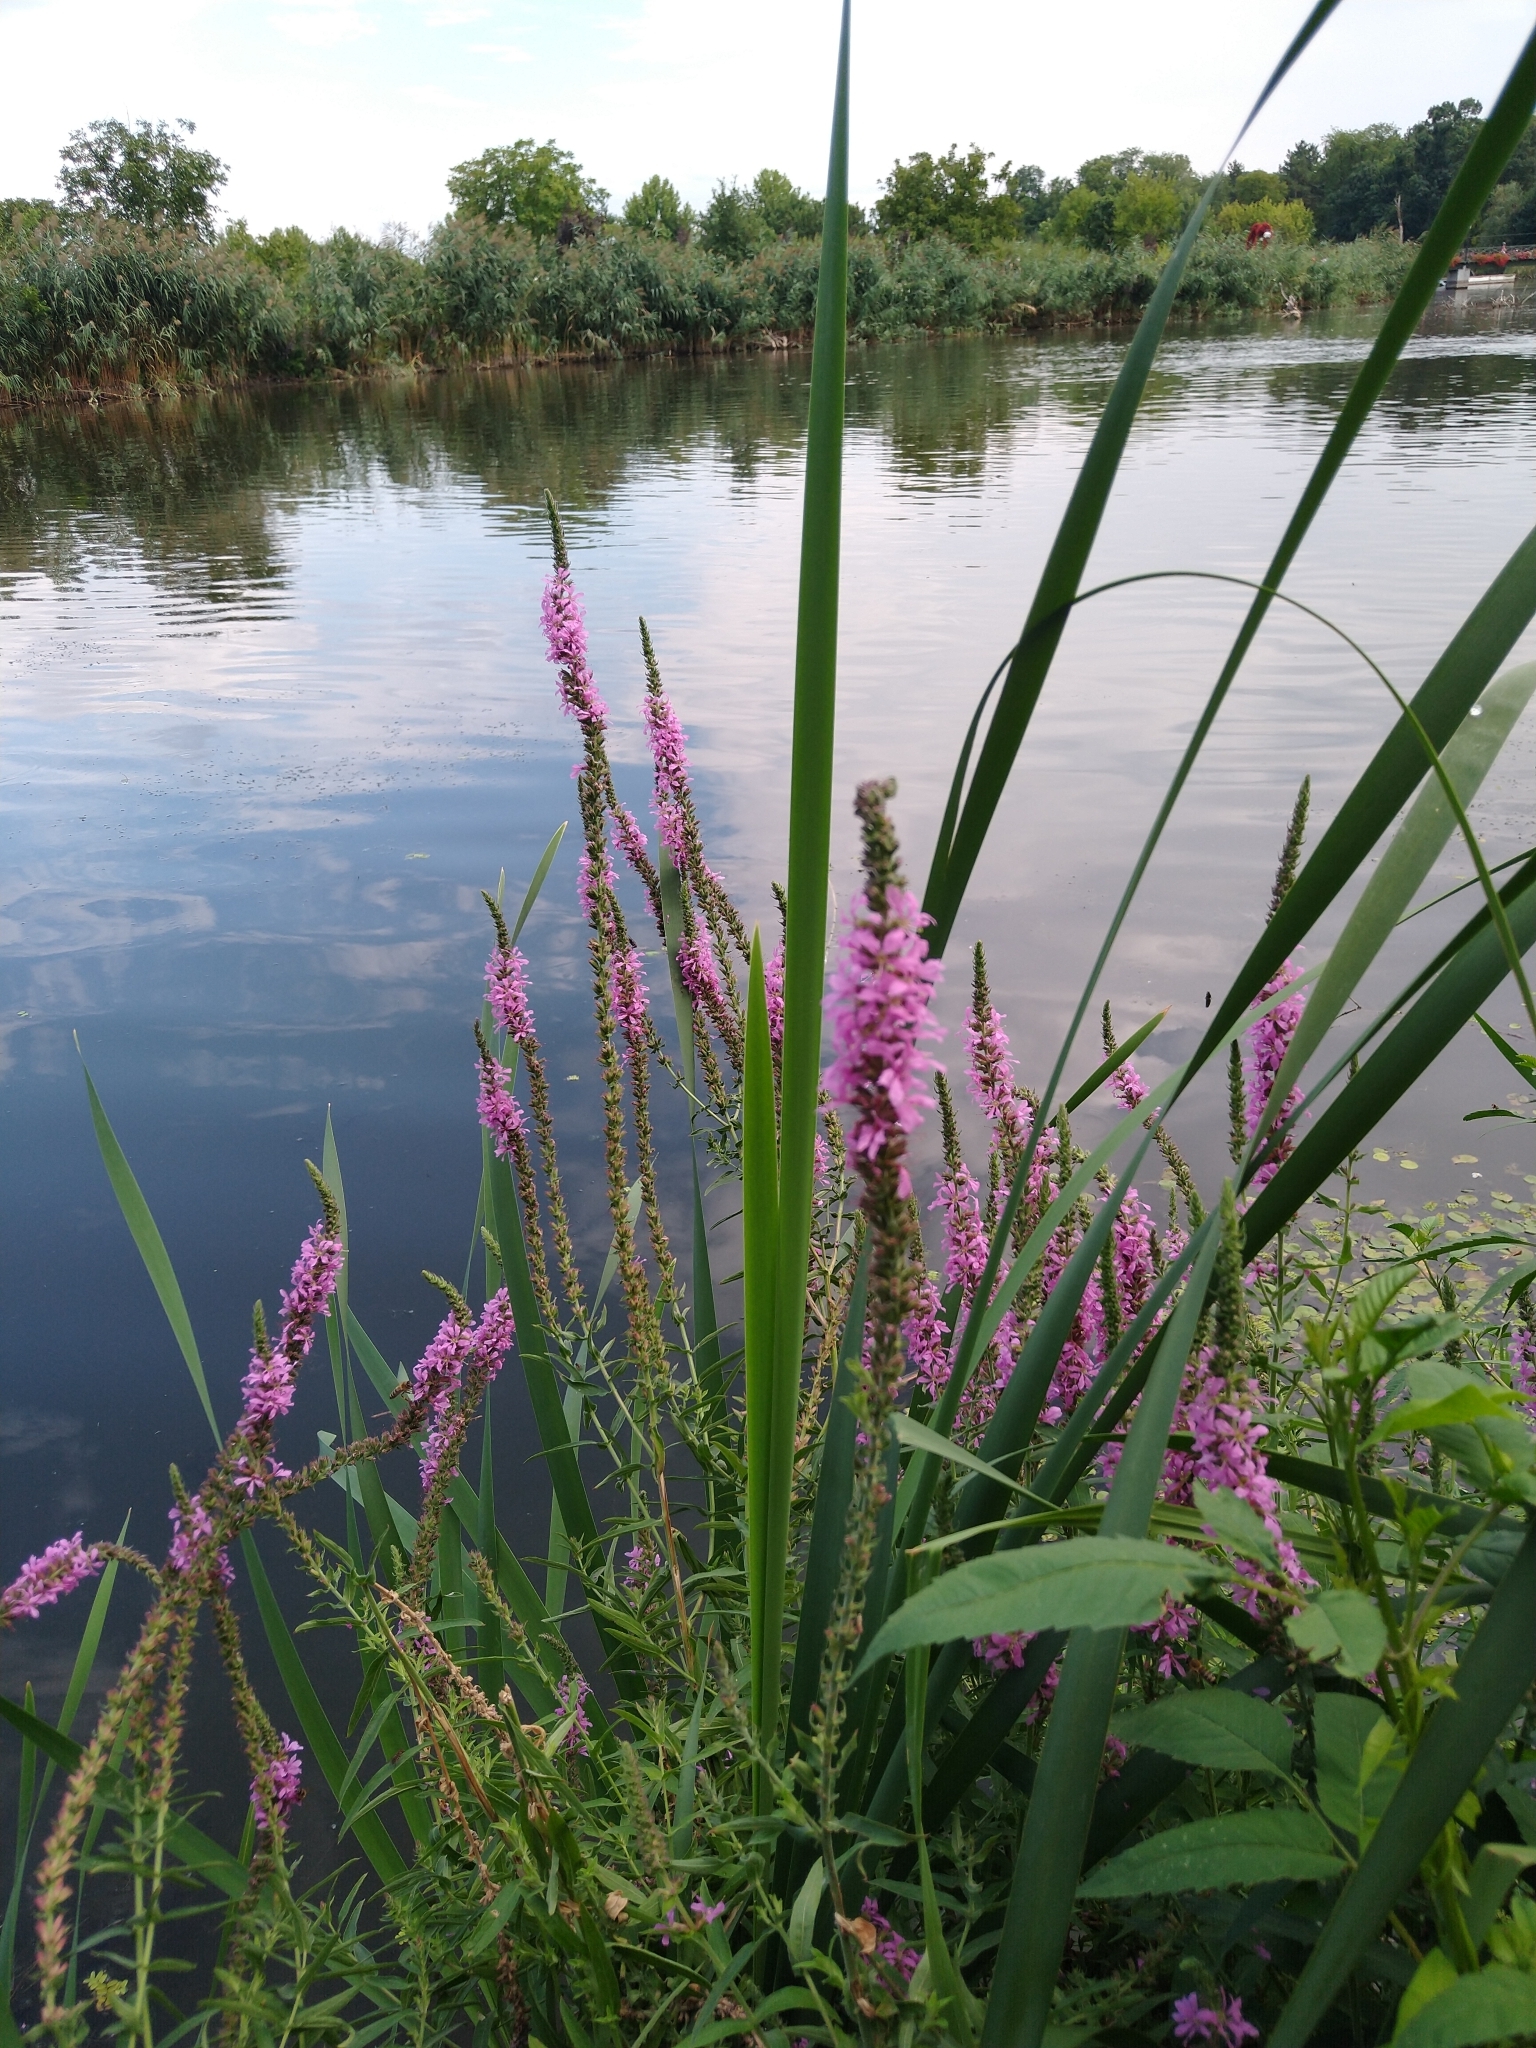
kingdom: Plantae
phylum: Tracheophyta
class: Magnoliopsida
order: Myrtales
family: Lythraceae
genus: Lythrum
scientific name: Lythrum salicaria
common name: Purple loosestrife
